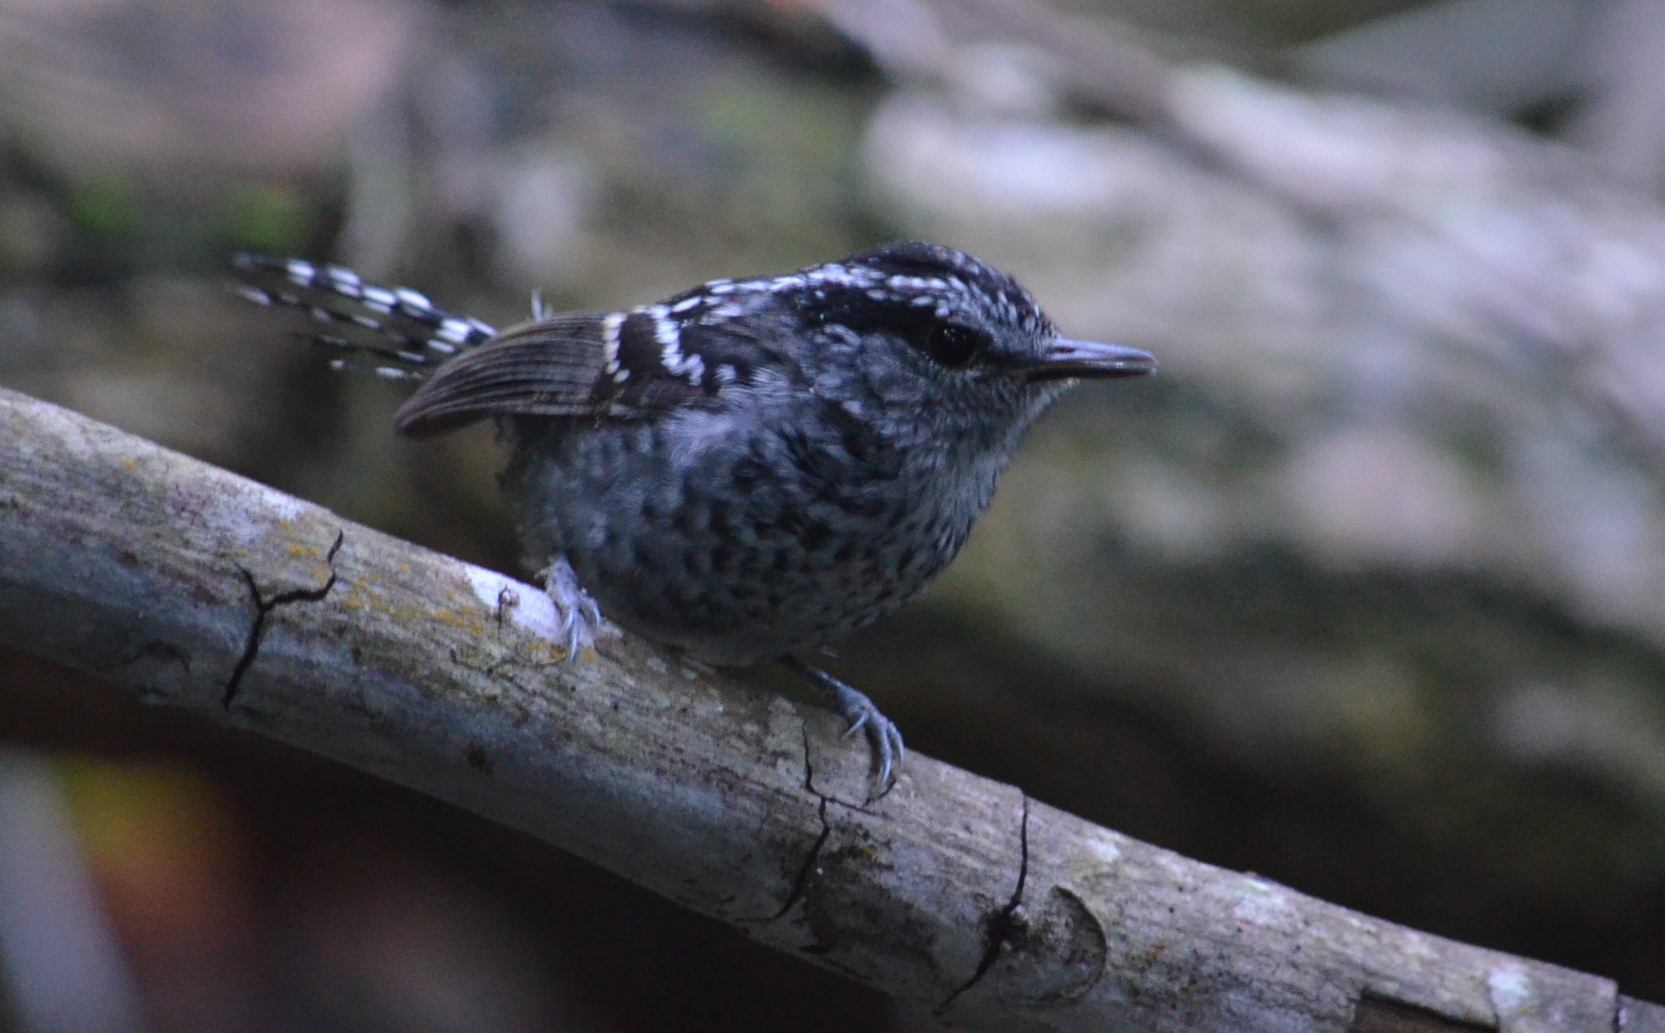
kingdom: Animalia
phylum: Chordata
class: Aves
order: Passeriformes
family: Thamnophilidae
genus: Drymophila
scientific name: Drymophila squamata
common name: Scaled antbird
